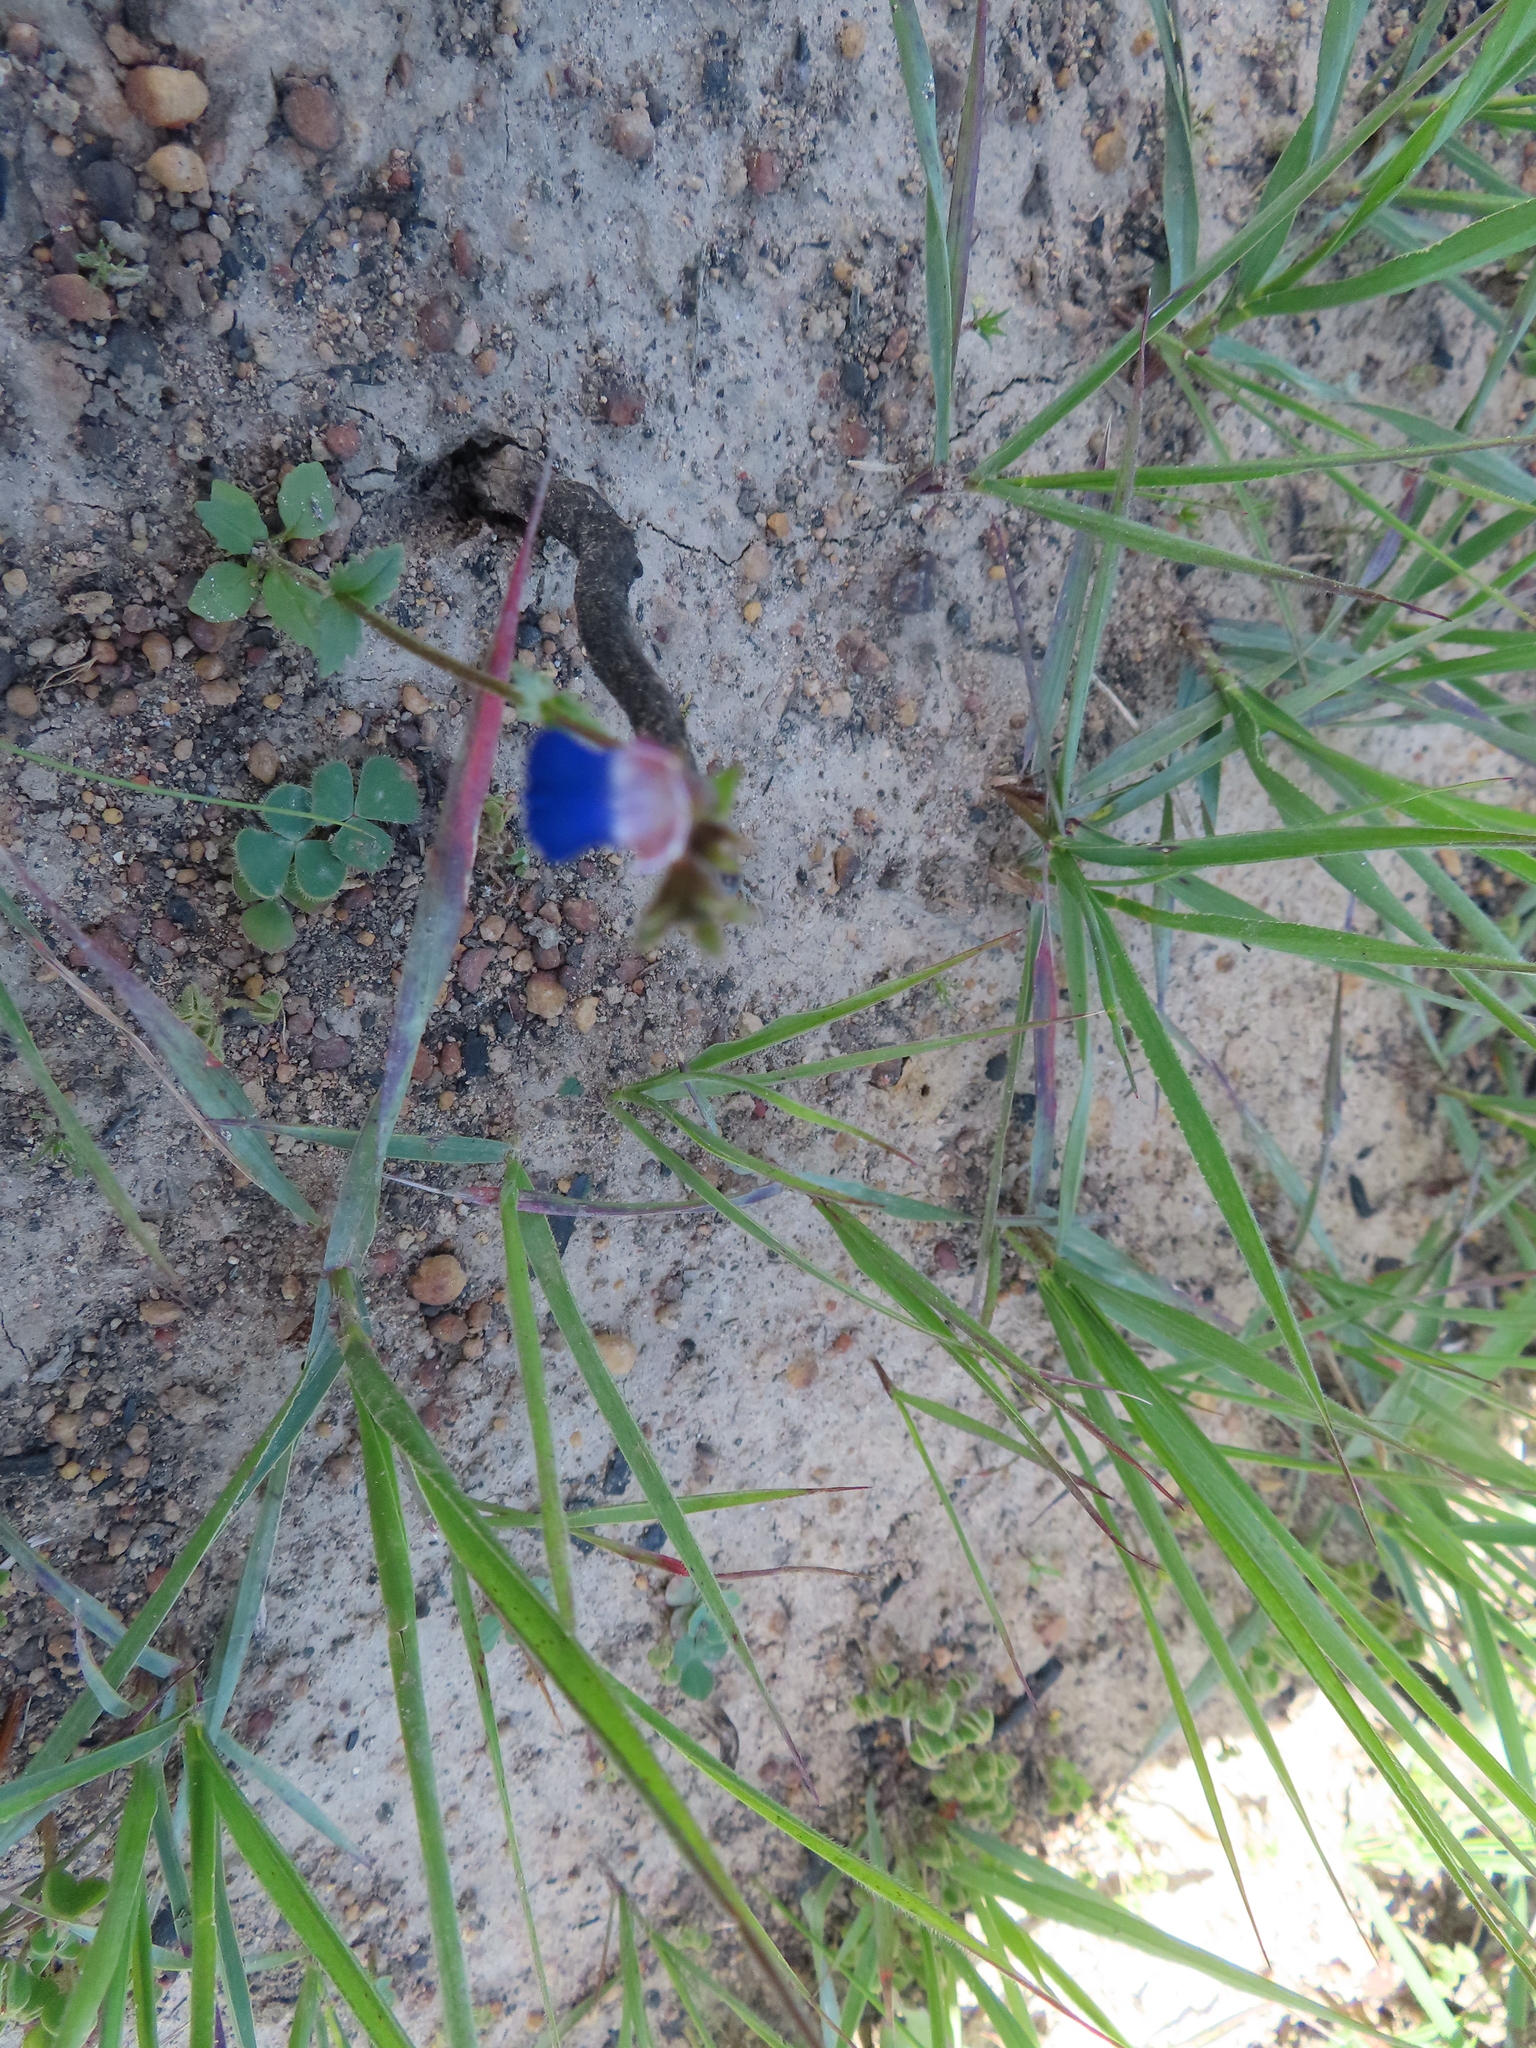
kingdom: Plantae
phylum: Tracheophyta
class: Magnoliopsida
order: Lamiales
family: Scrophulariaceae
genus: Nemesia
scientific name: Nemesia barbata
